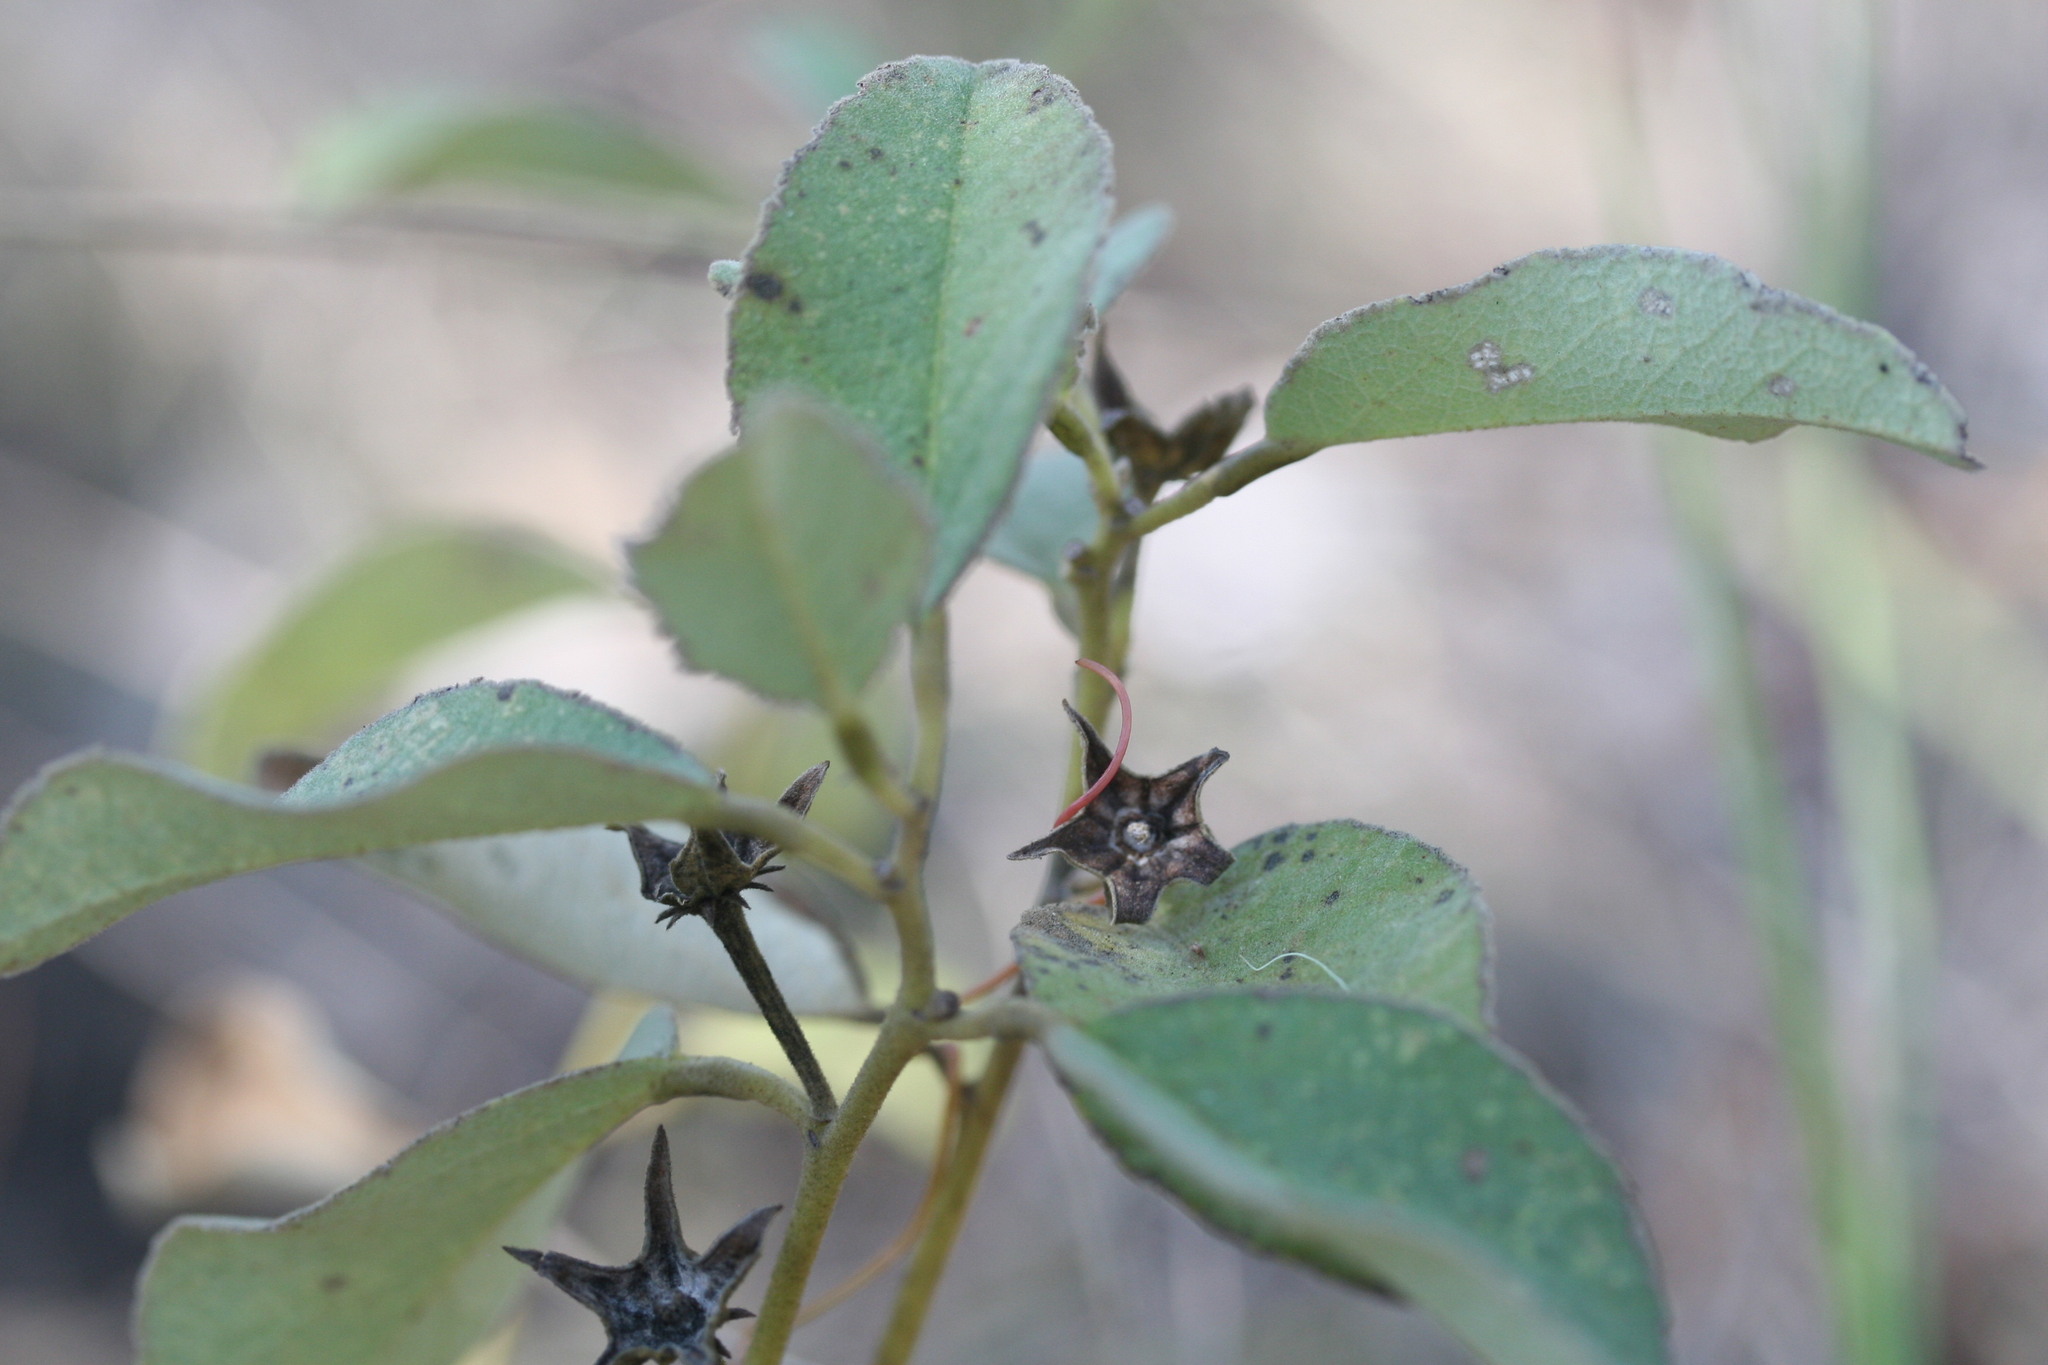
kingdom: Plantae
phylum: Tracheophyta
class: Magnoliopsida
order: Malvales
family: Malvaceae
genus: Decaschistia
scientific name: Decaschistia occidentalis
